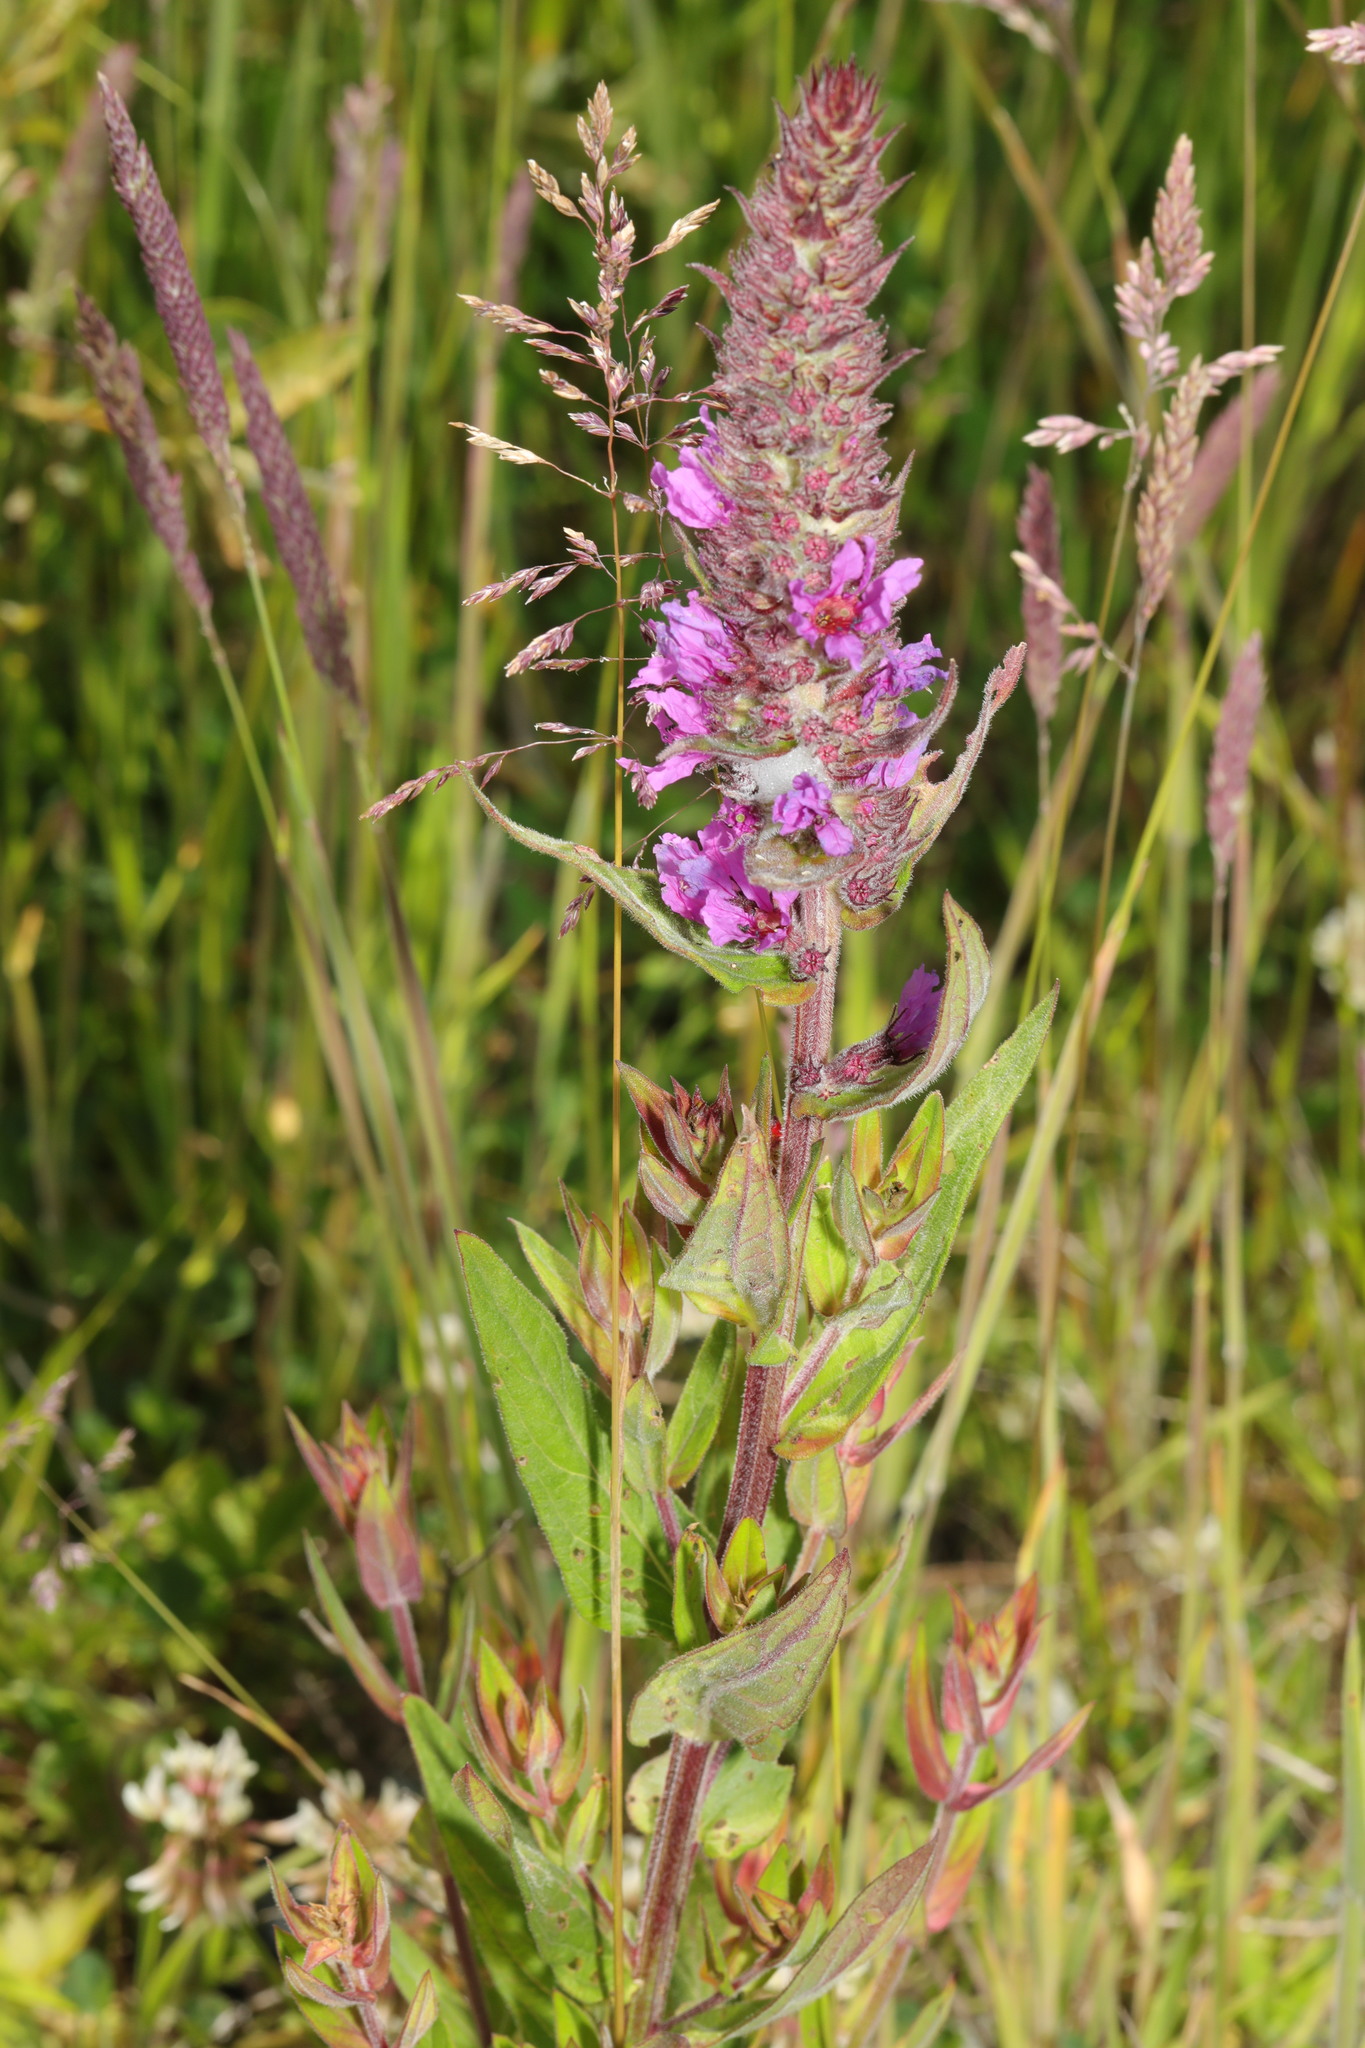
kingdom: Plantae
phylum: Tracheophyta
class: Magnoliopsida
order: Myrtales
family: Lythraceae
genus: Lythrum
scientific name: Lythrum salicaria
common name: Purple loosestrife
